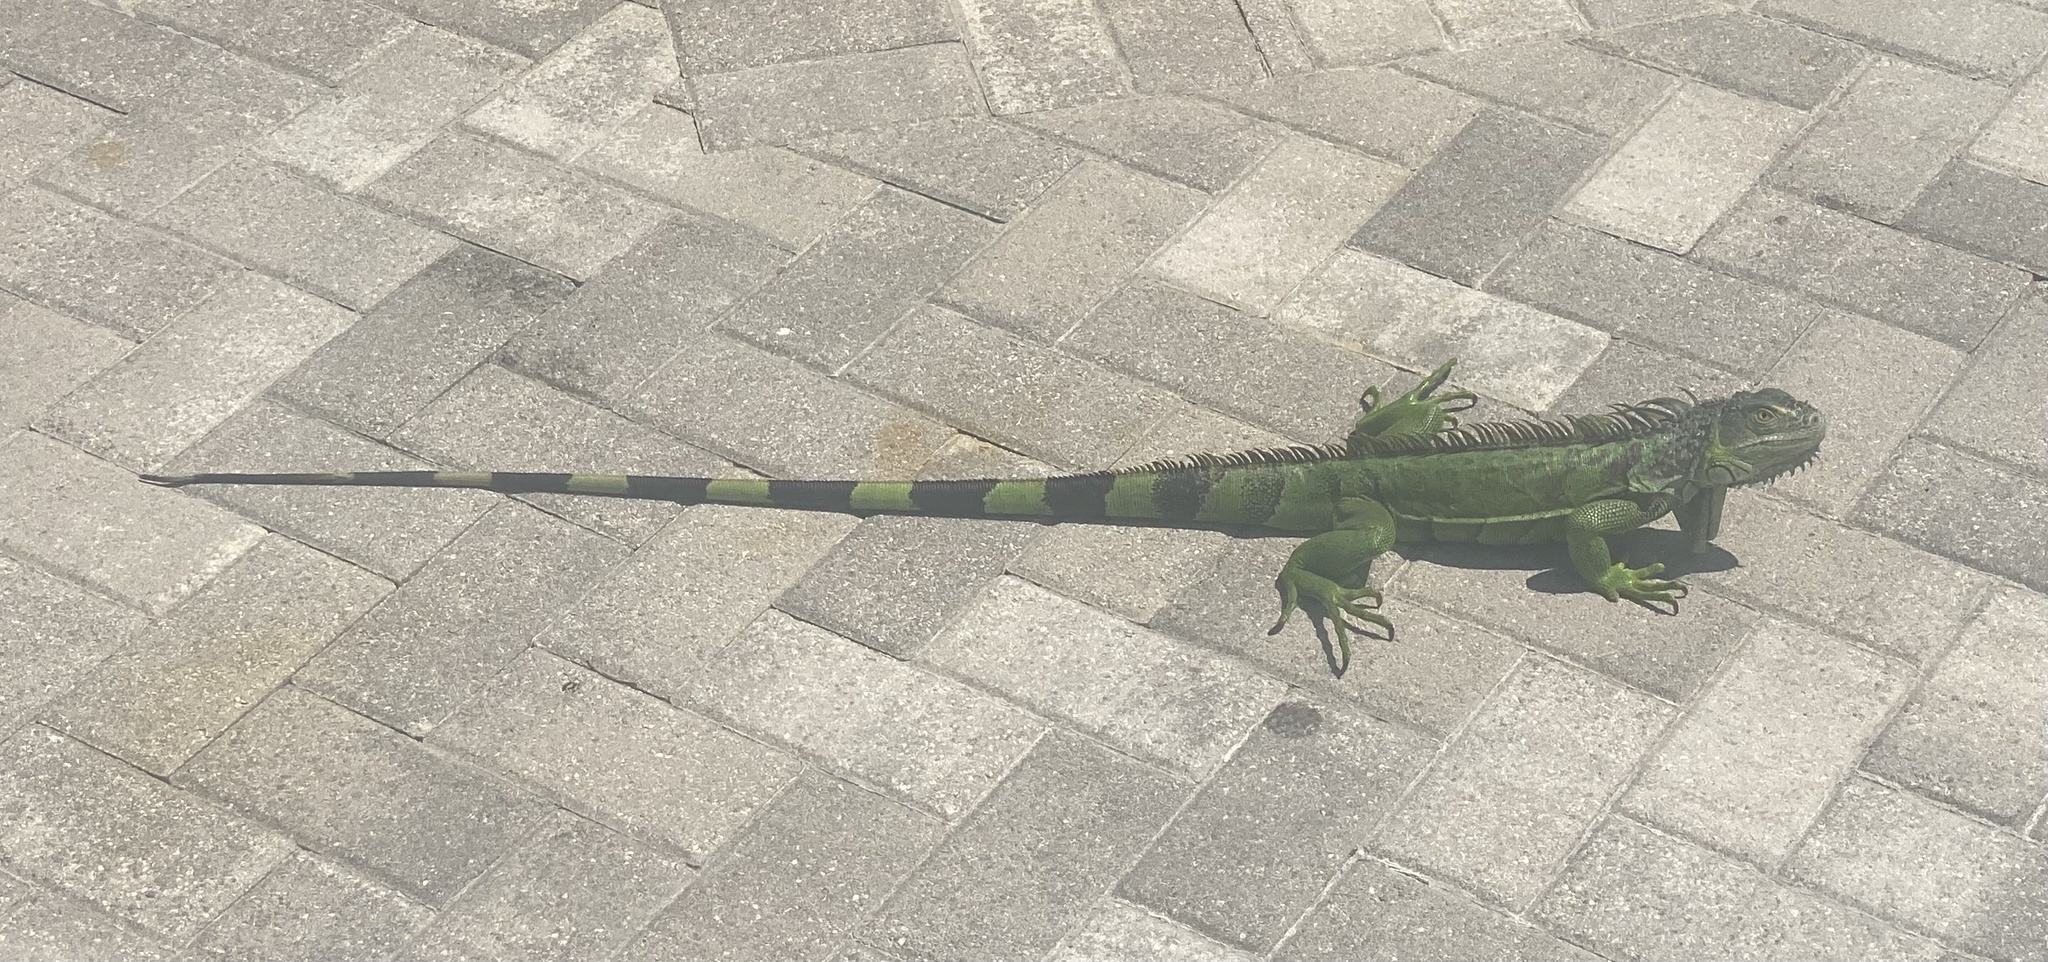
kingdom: Animalia
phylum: Chordata
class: Squamata
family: Iguanidae
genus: Iguana
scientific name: Iguana iguana
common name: Green iguana
